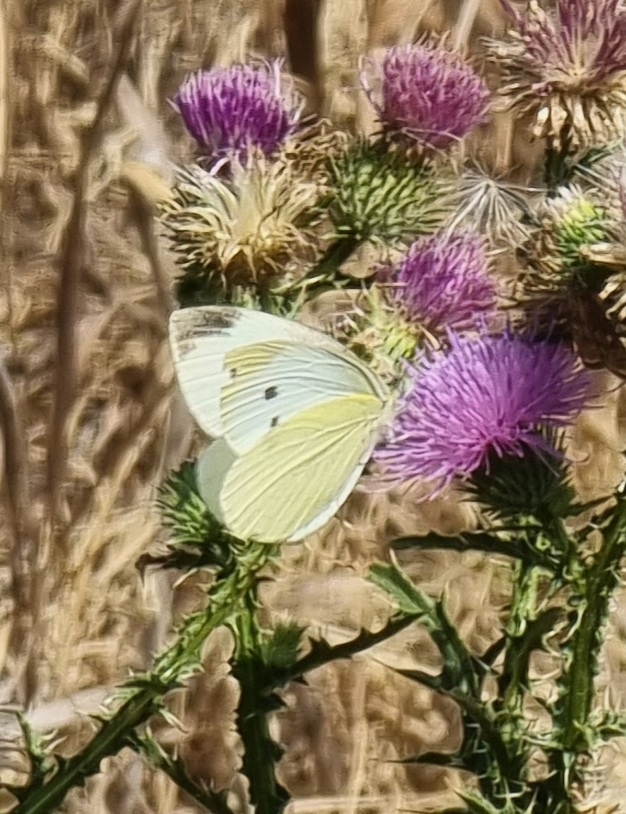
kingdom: Animalia
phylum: Arthropoda
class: Insecta
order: Lepidoptera
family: Pieridae
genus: Pieris
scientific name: Pieris rapae
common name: Small white
